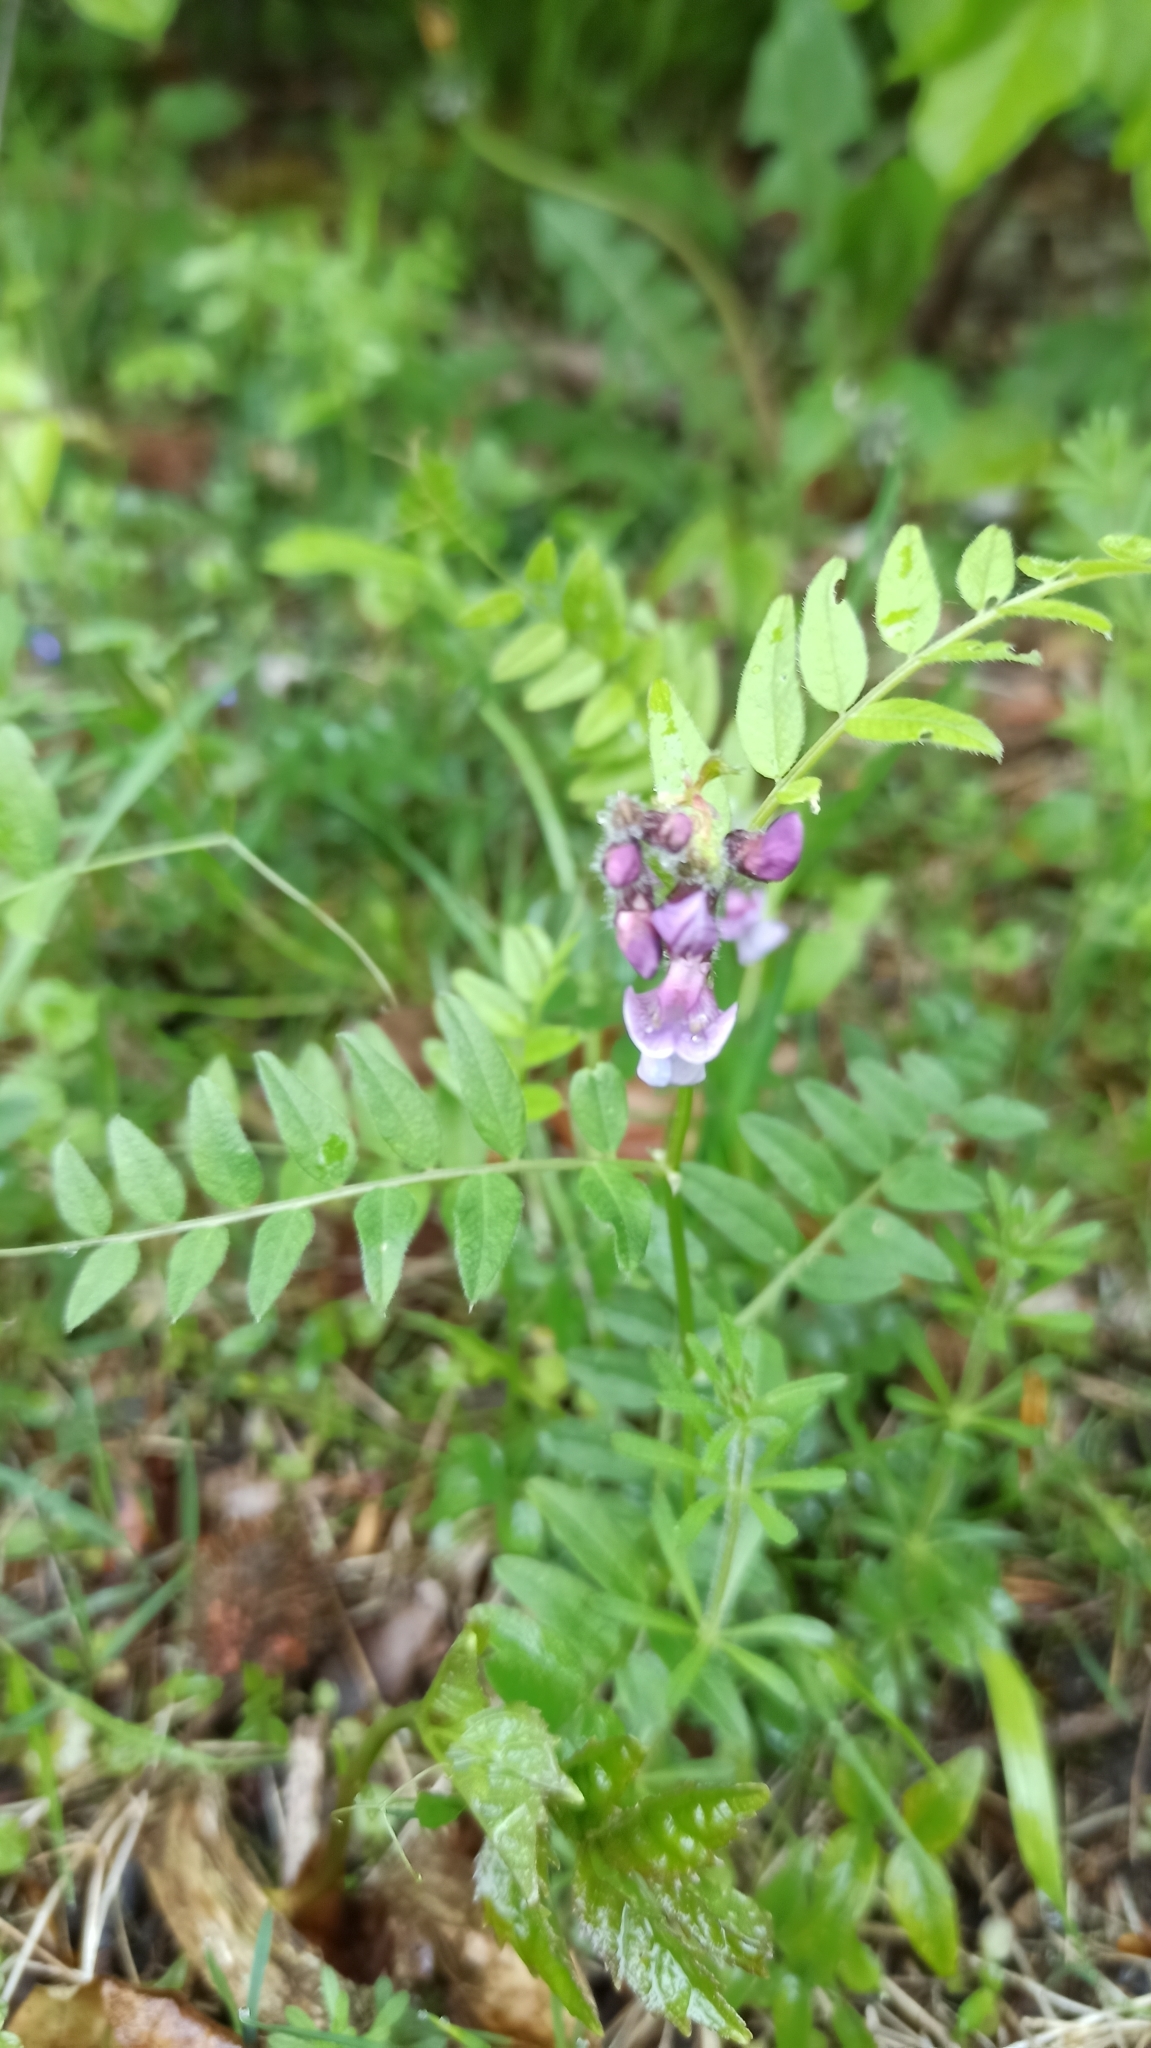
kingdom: Plantae
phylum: Tracheophyta
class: Magnoliopsida
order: Fabales
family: Fabaceae
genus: Vicia
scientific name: Vicia sepium
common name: Bush vetch
